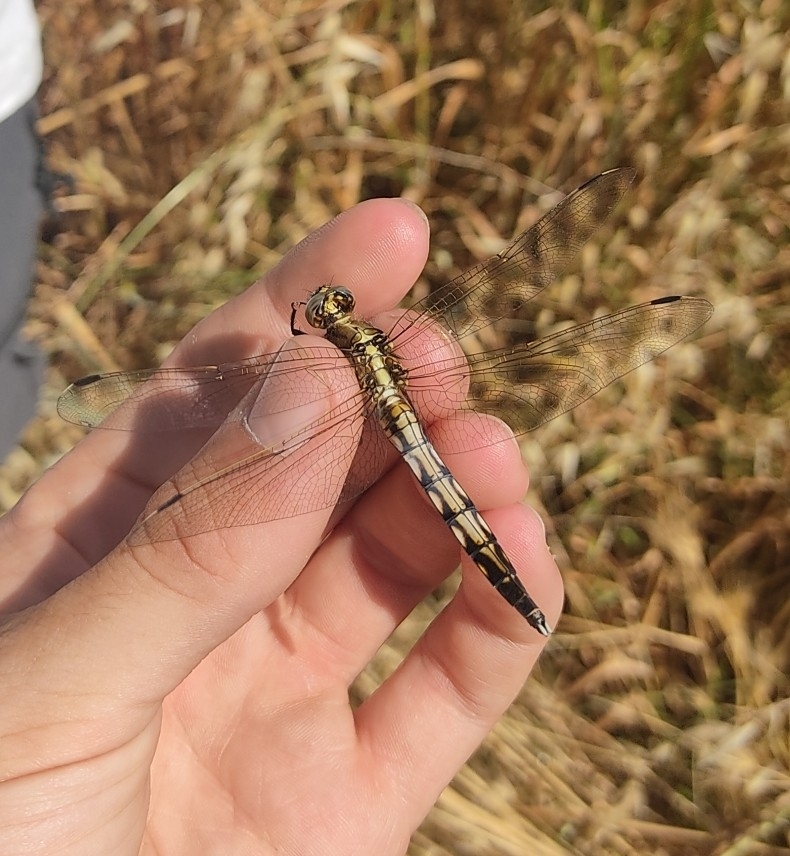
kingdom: Animalia
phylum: Arthropoda
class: Insecta
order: Odonata
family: Libellulidae
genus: Orthetrum
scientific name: Orthetrum albistylum
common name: White-tailed skimmer
